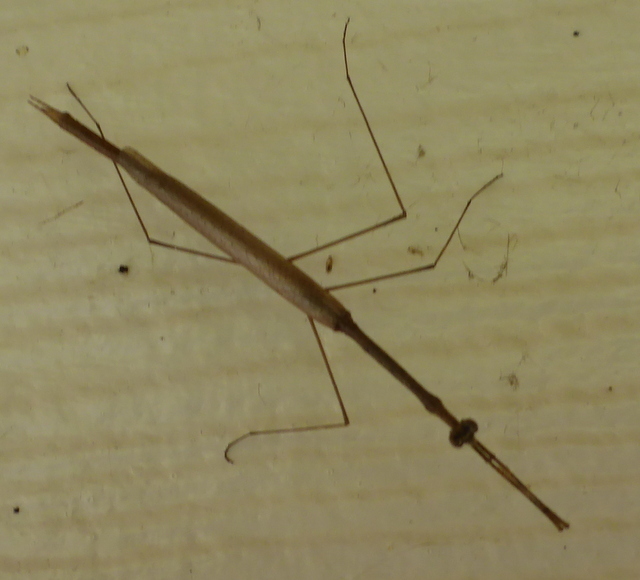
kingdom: Animalia
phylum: Arthropoda
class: Insecta
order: Mantodea
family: Thespidae
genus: Thesprotia
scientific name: Thesprotia graminis
